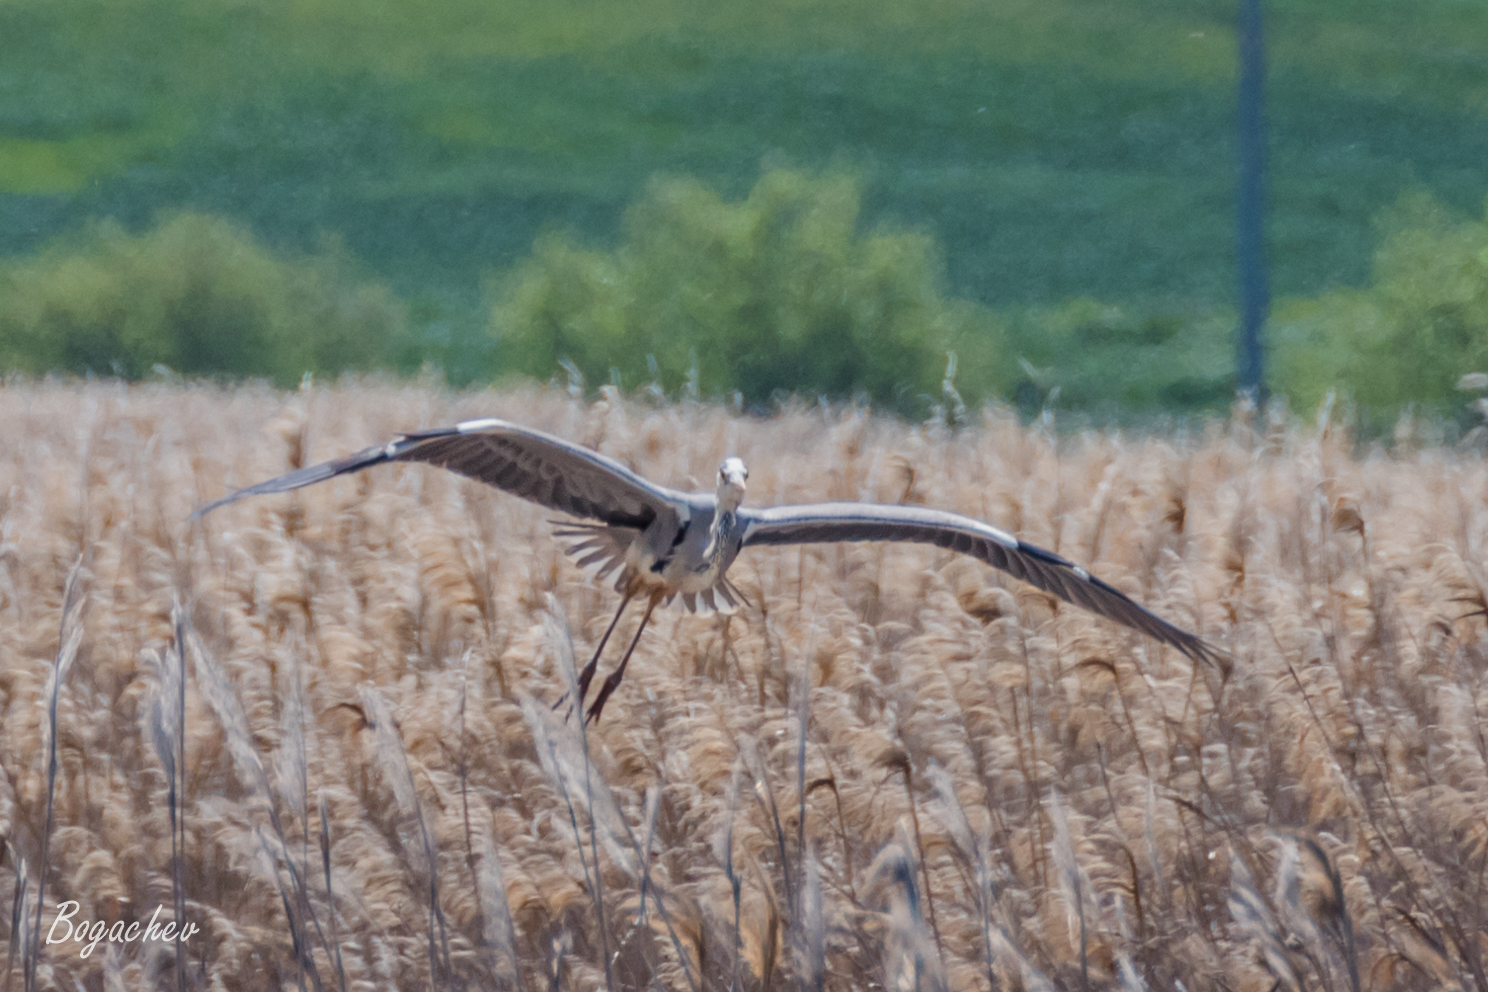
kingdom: Animalia
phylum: Chordata
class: Aves
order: Pelecaniformes
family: Ardeidae
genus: Ardea
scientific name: Ardea cinerea
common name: Grey heron
